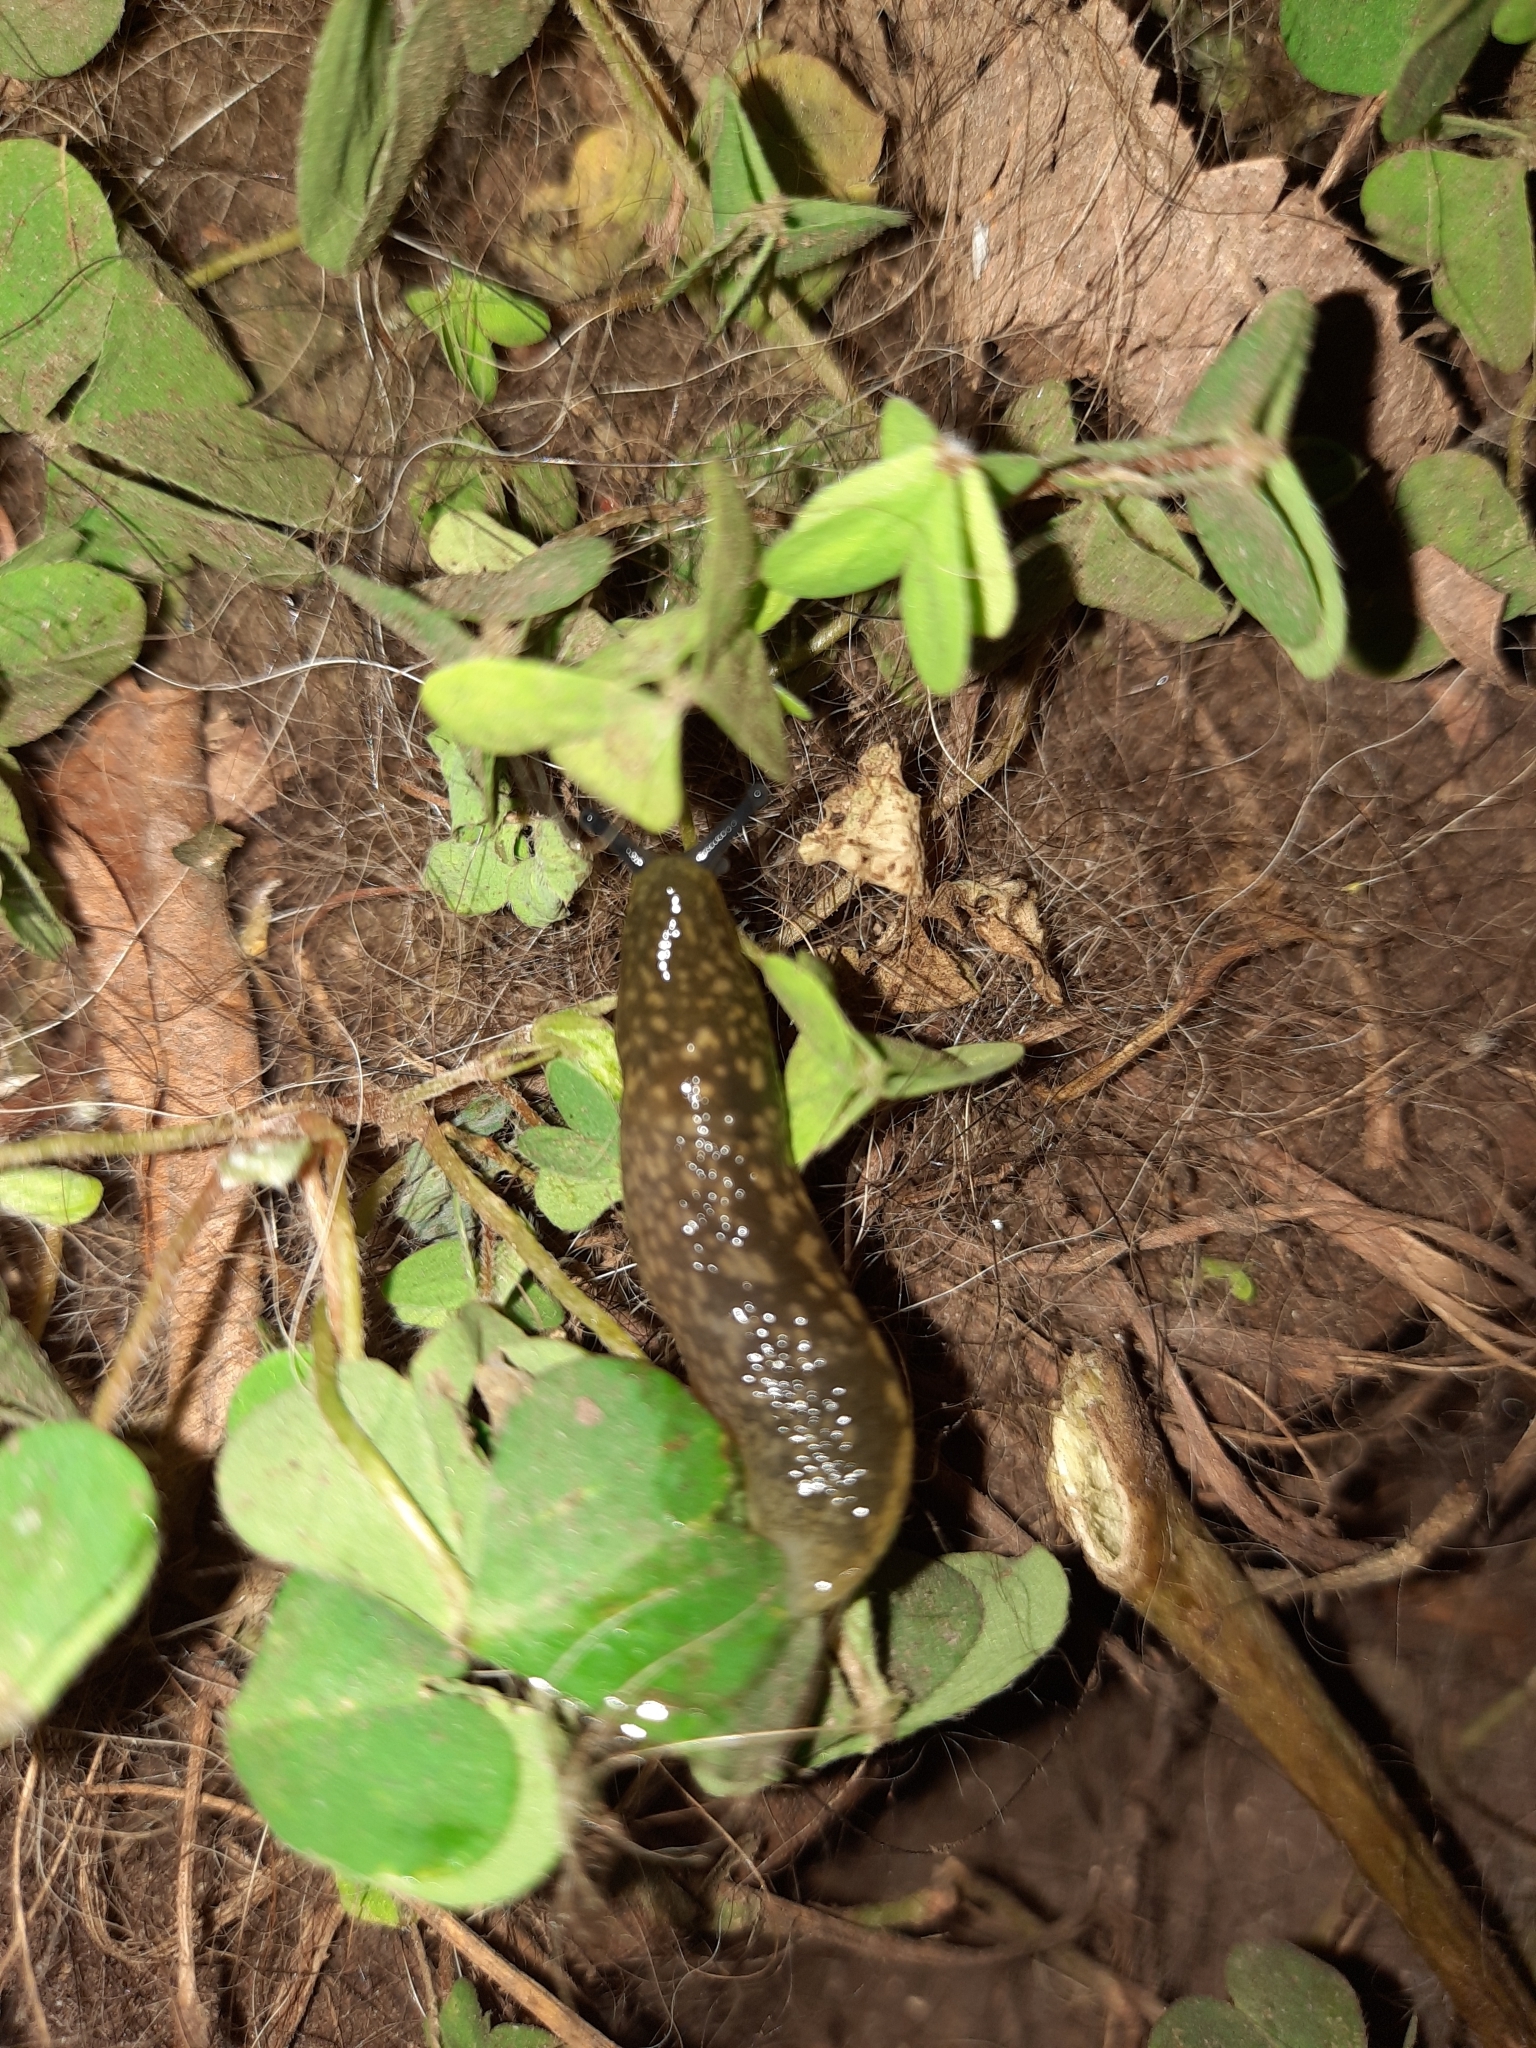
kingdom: Animalia
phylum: Mollusca
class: Gastropoda
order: Stylommatophora
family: Limacidae
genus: Limacus
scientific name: Limacus flavus
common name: Yellow gardenslug
